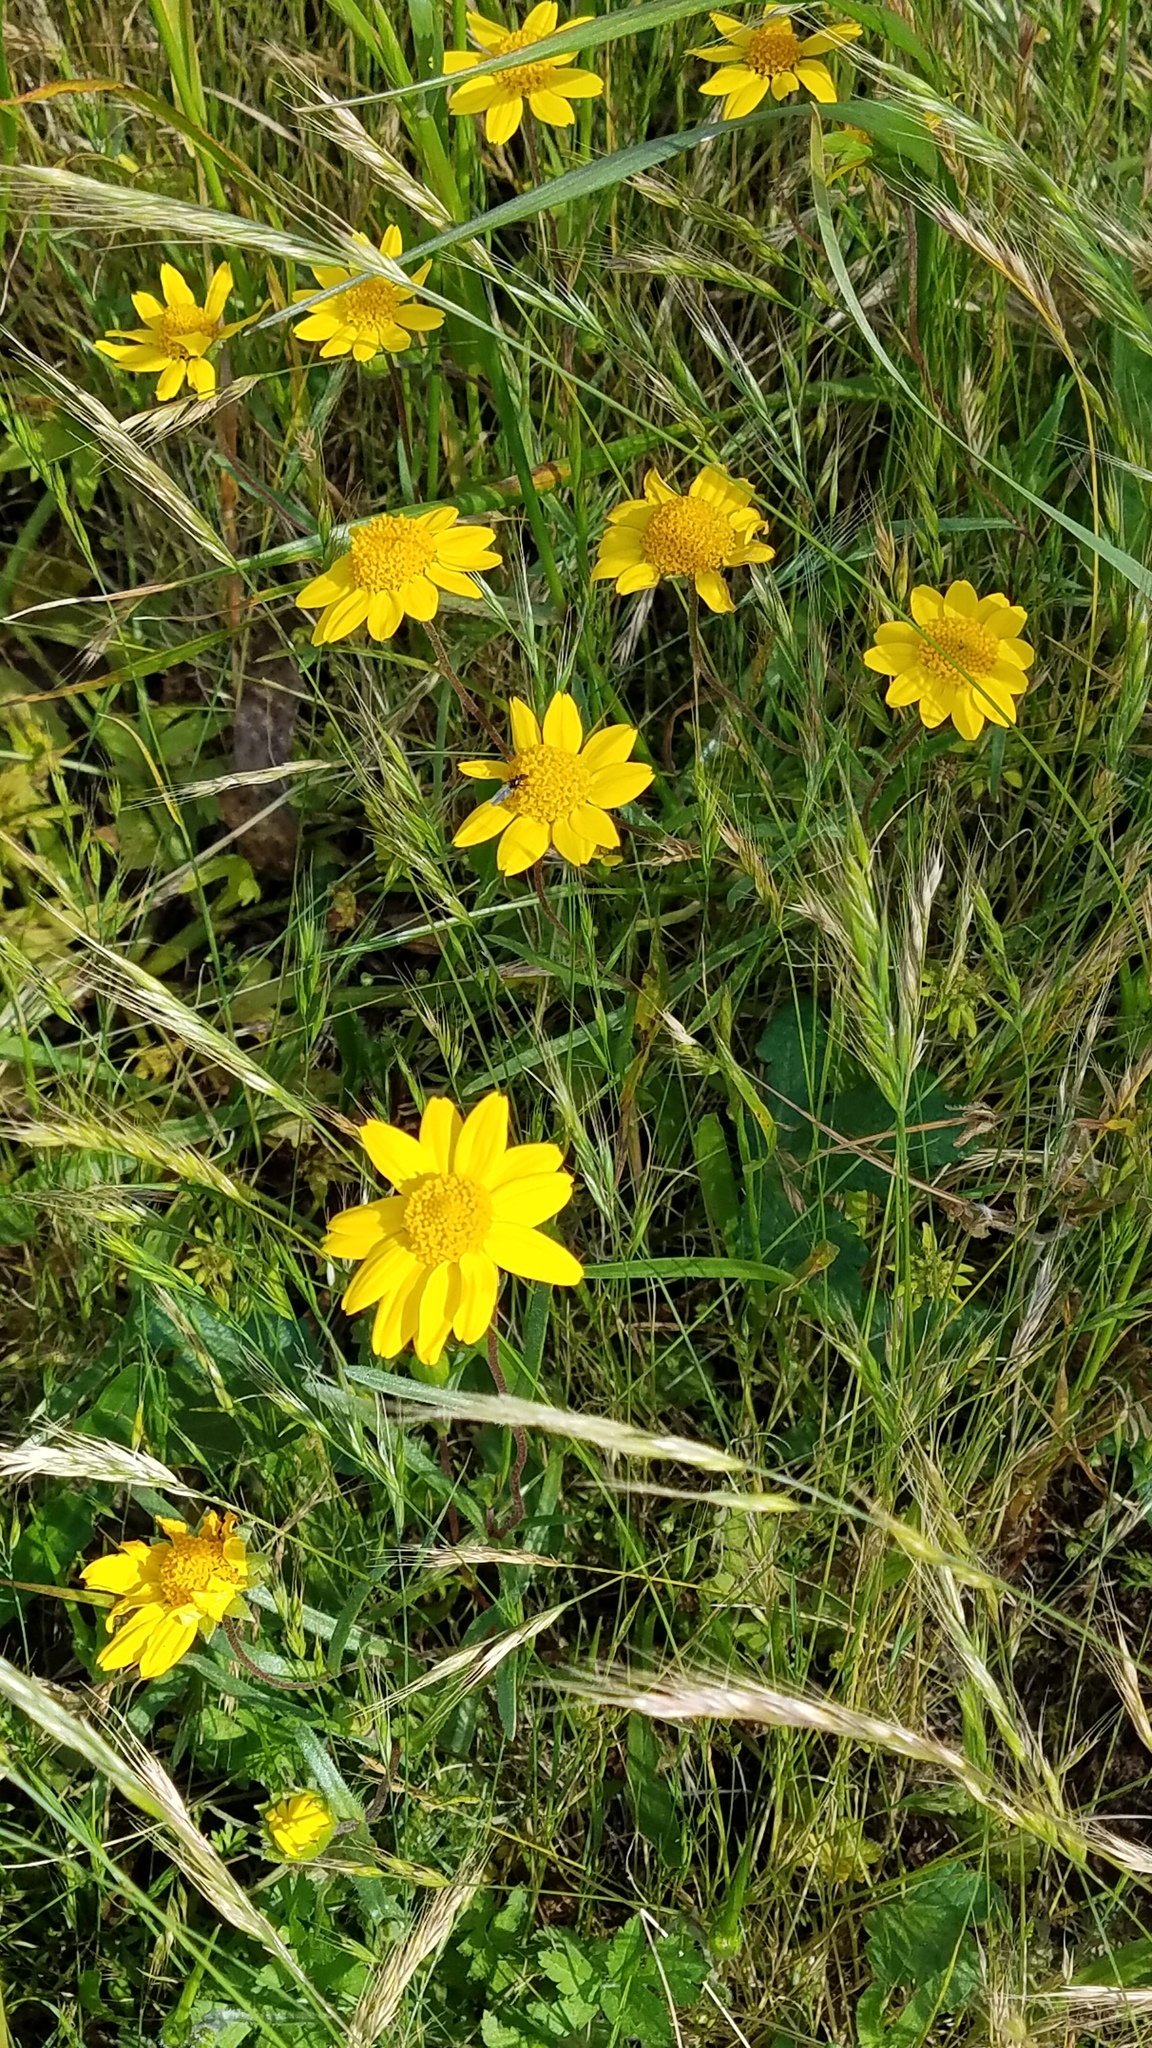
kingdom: Plantae
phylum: Tracheophyta
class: Magnoliopsida
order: Asterales
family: Asteraceae
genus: Lasthenia
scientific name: Lasthenia californica
